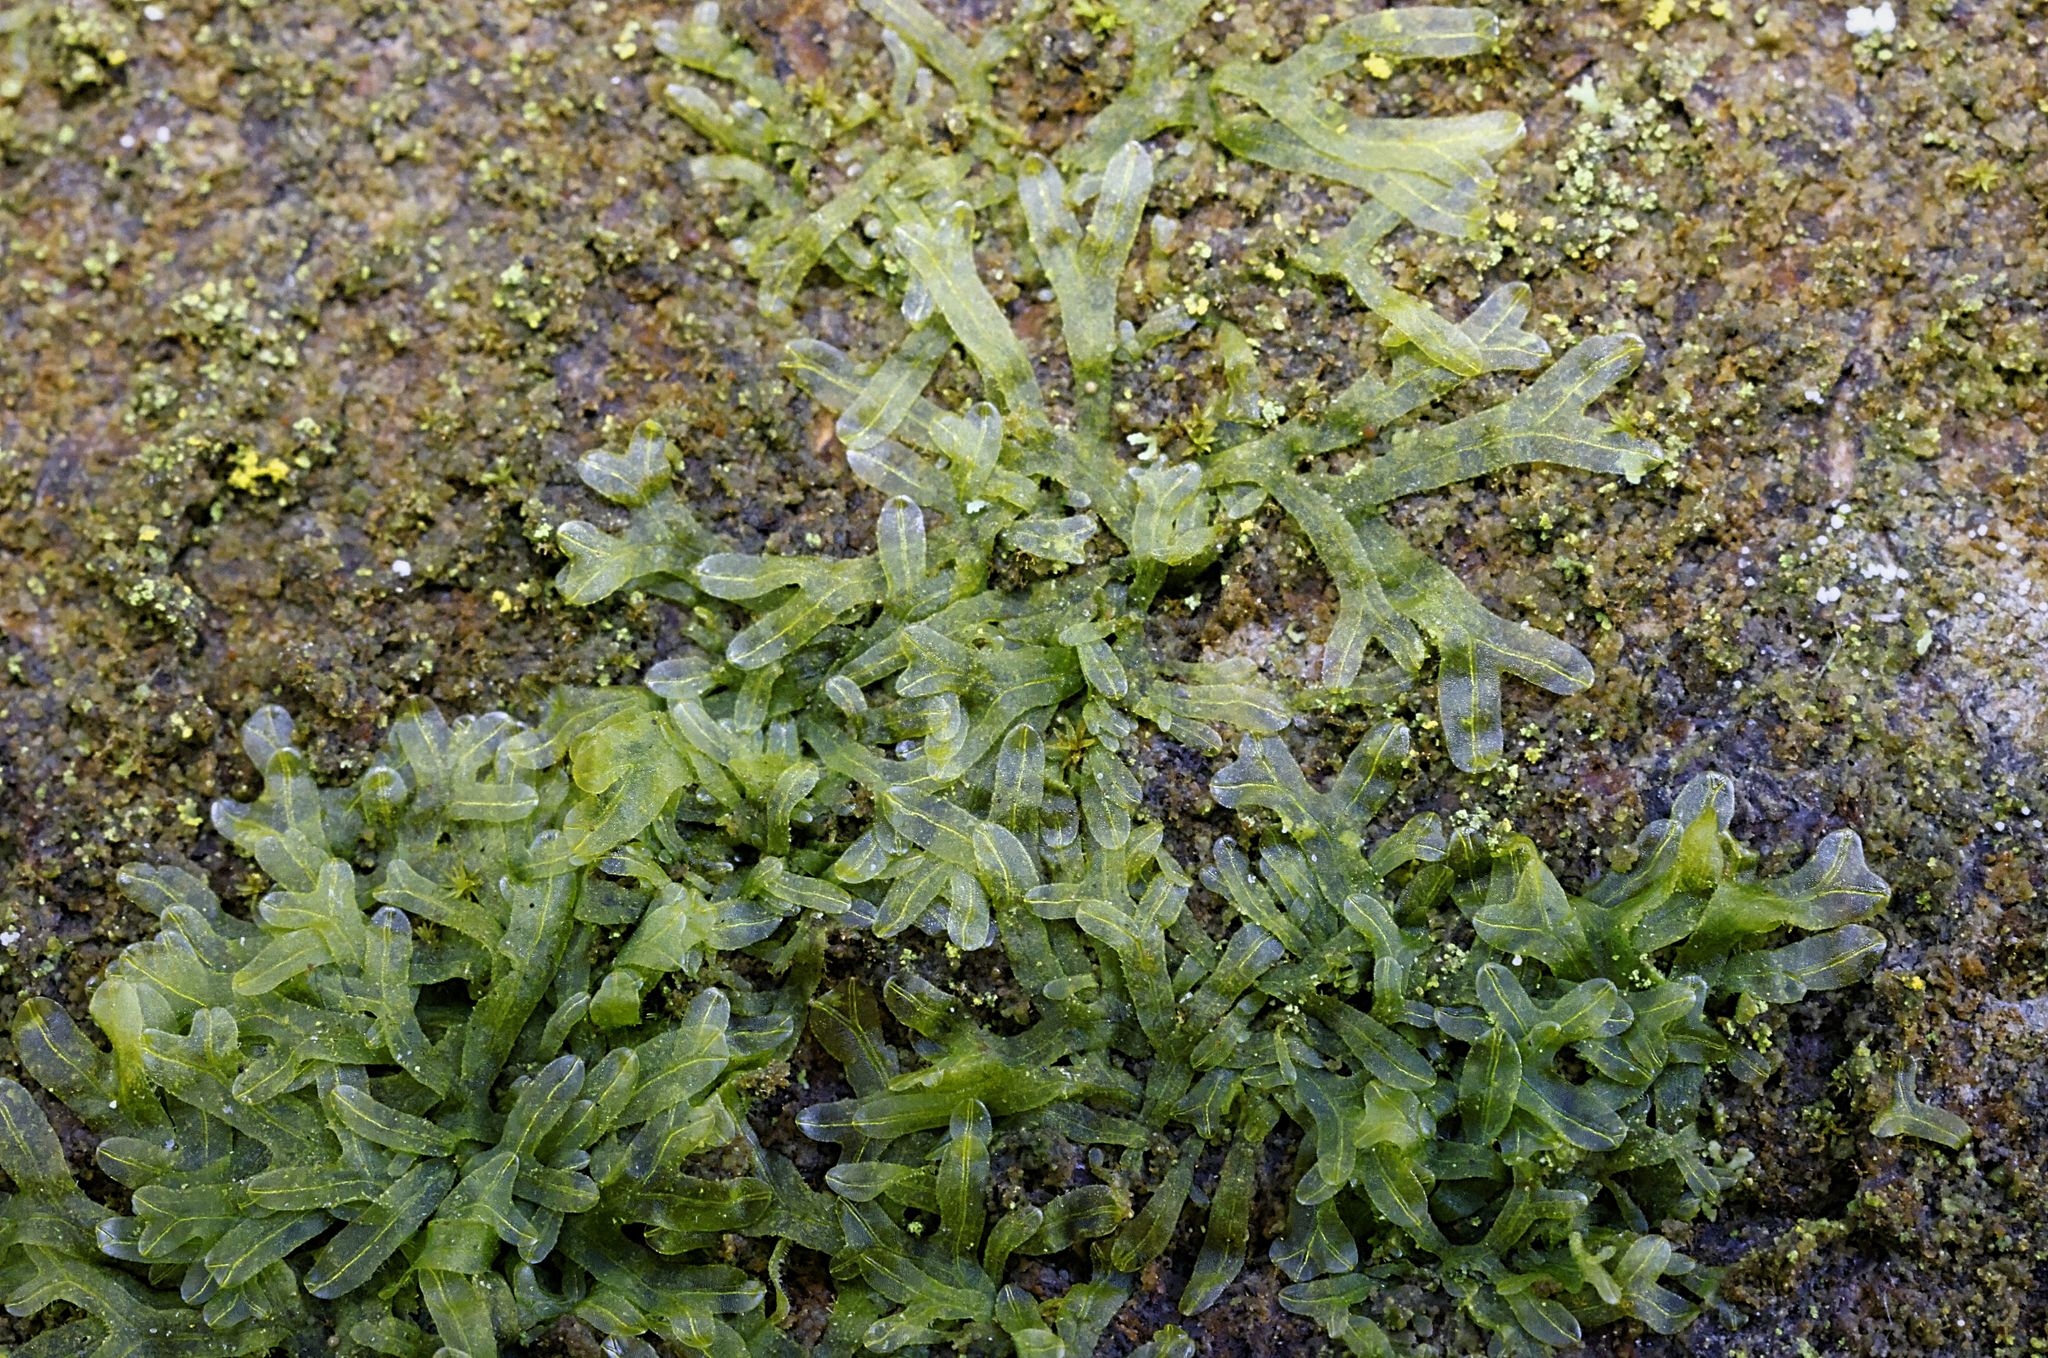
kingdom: Plantae
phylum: Marchantiophyta
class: Jungermanniopsida
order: Metzgeriales
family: Metzgeriaceae
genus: Metzgeria
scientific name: Metzgeria furcata
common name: Forked veilwort
